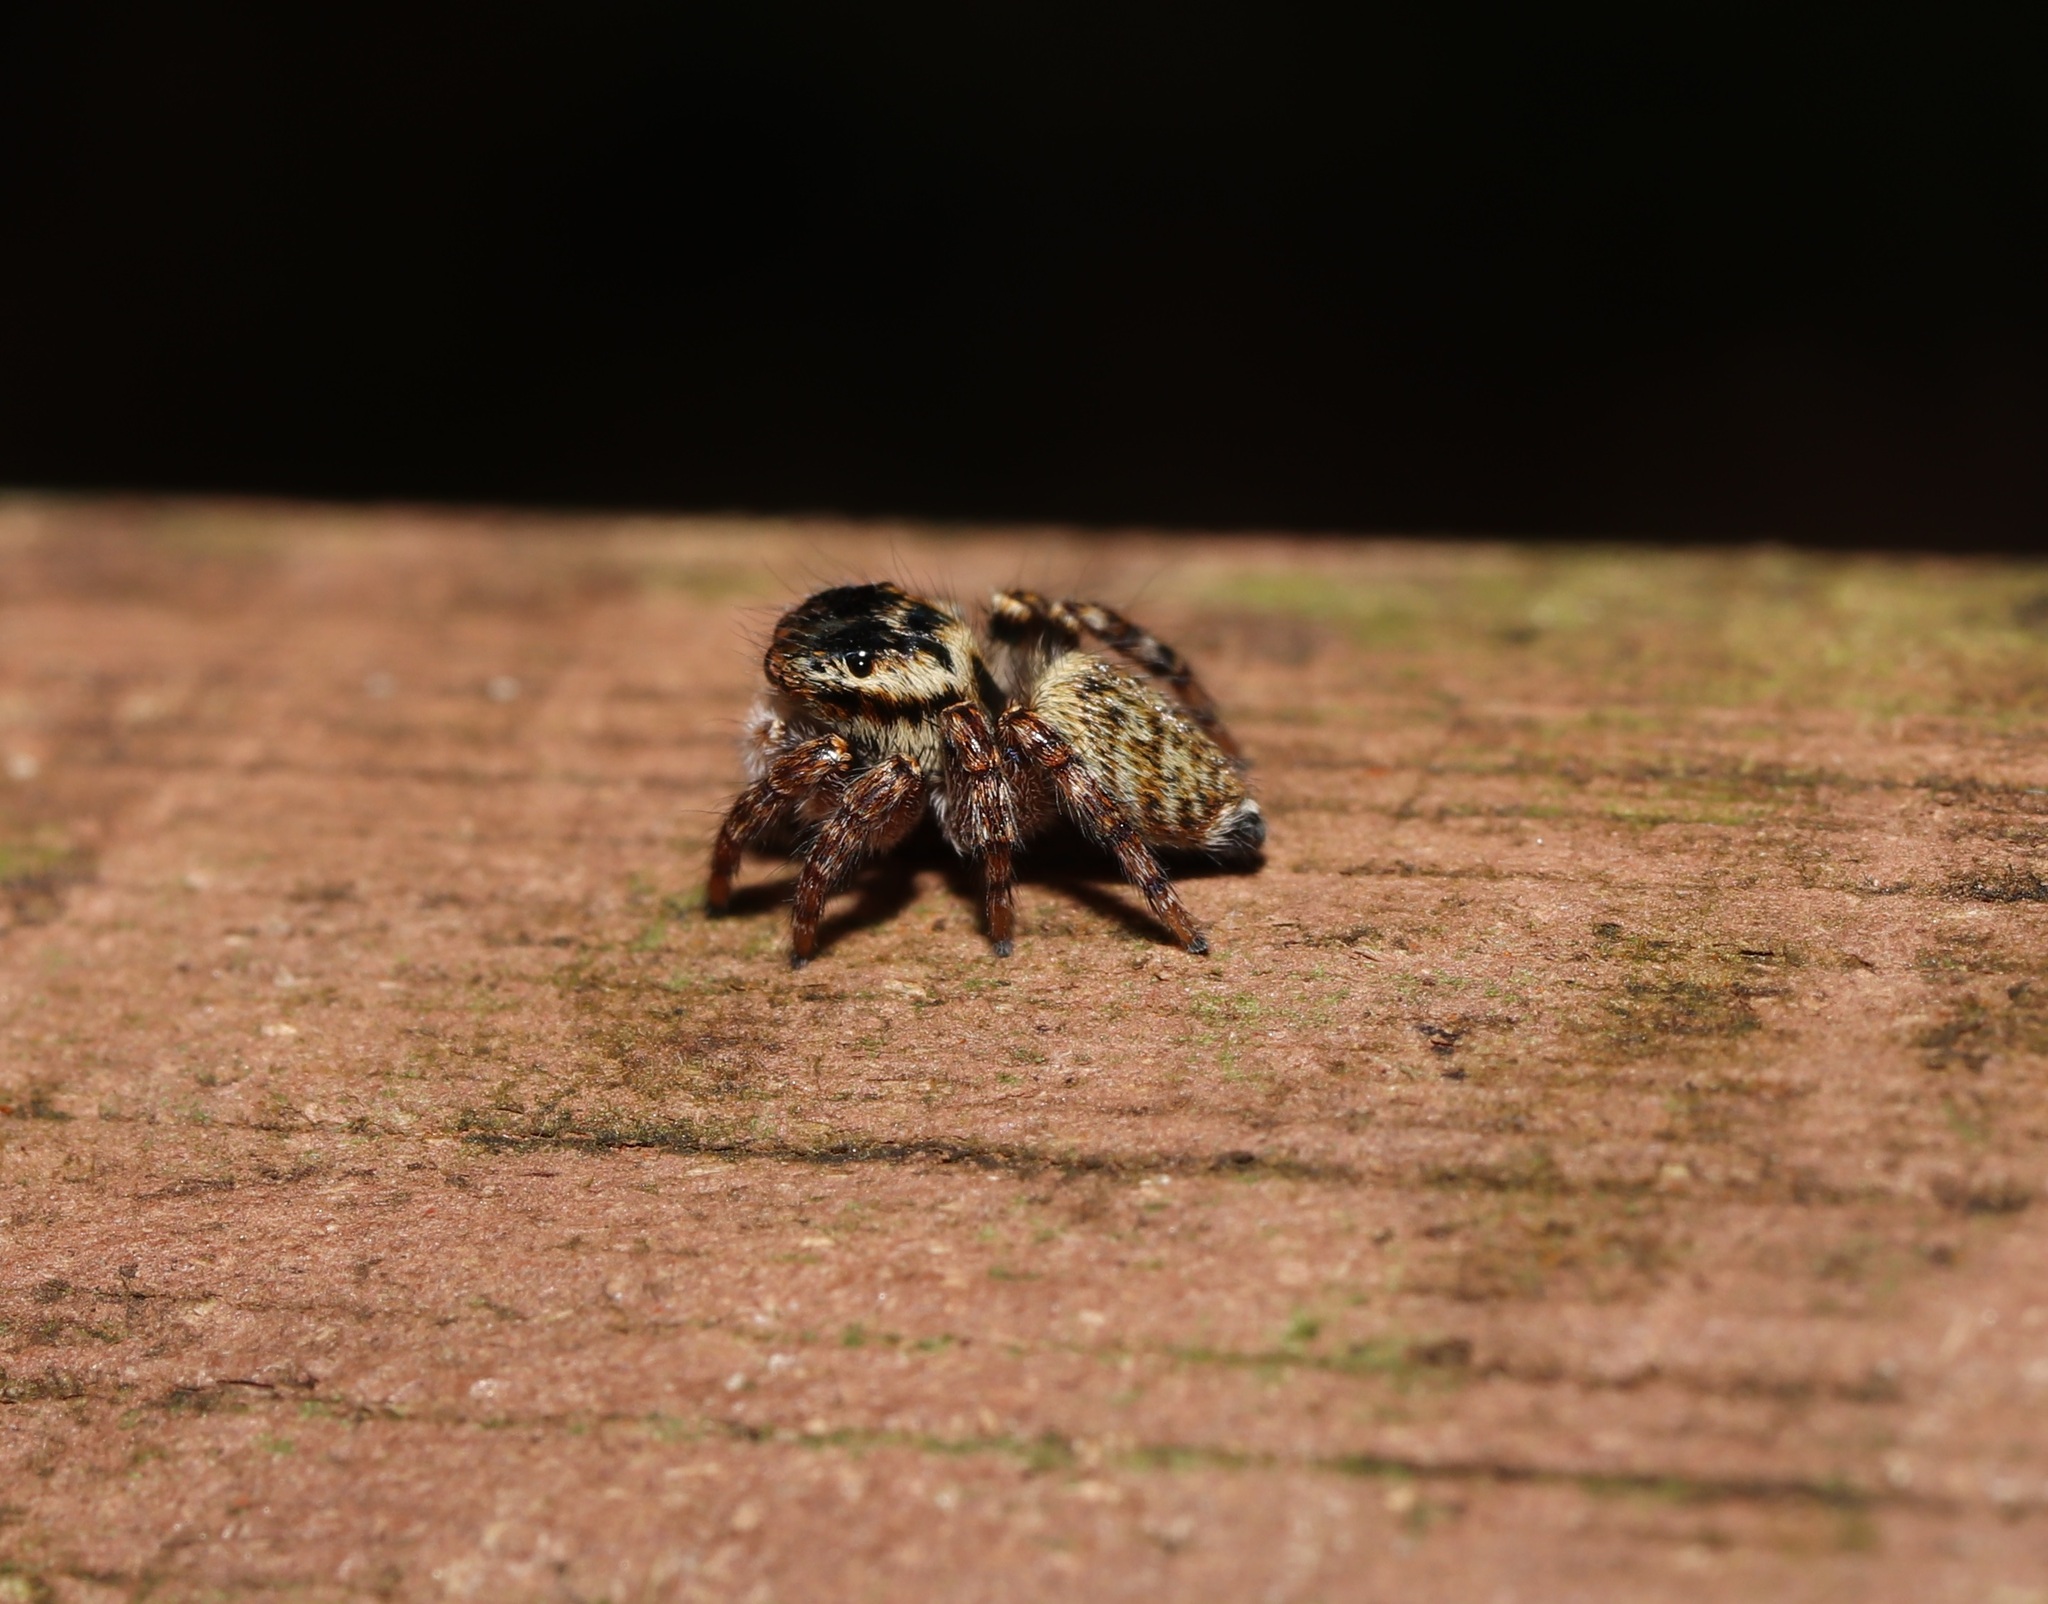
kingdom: Animalia
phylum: Arthropoda
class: Arachnida
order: Araneae
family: Salticidae
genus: Carrhotus
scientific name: Carrhotus xanthogramma
